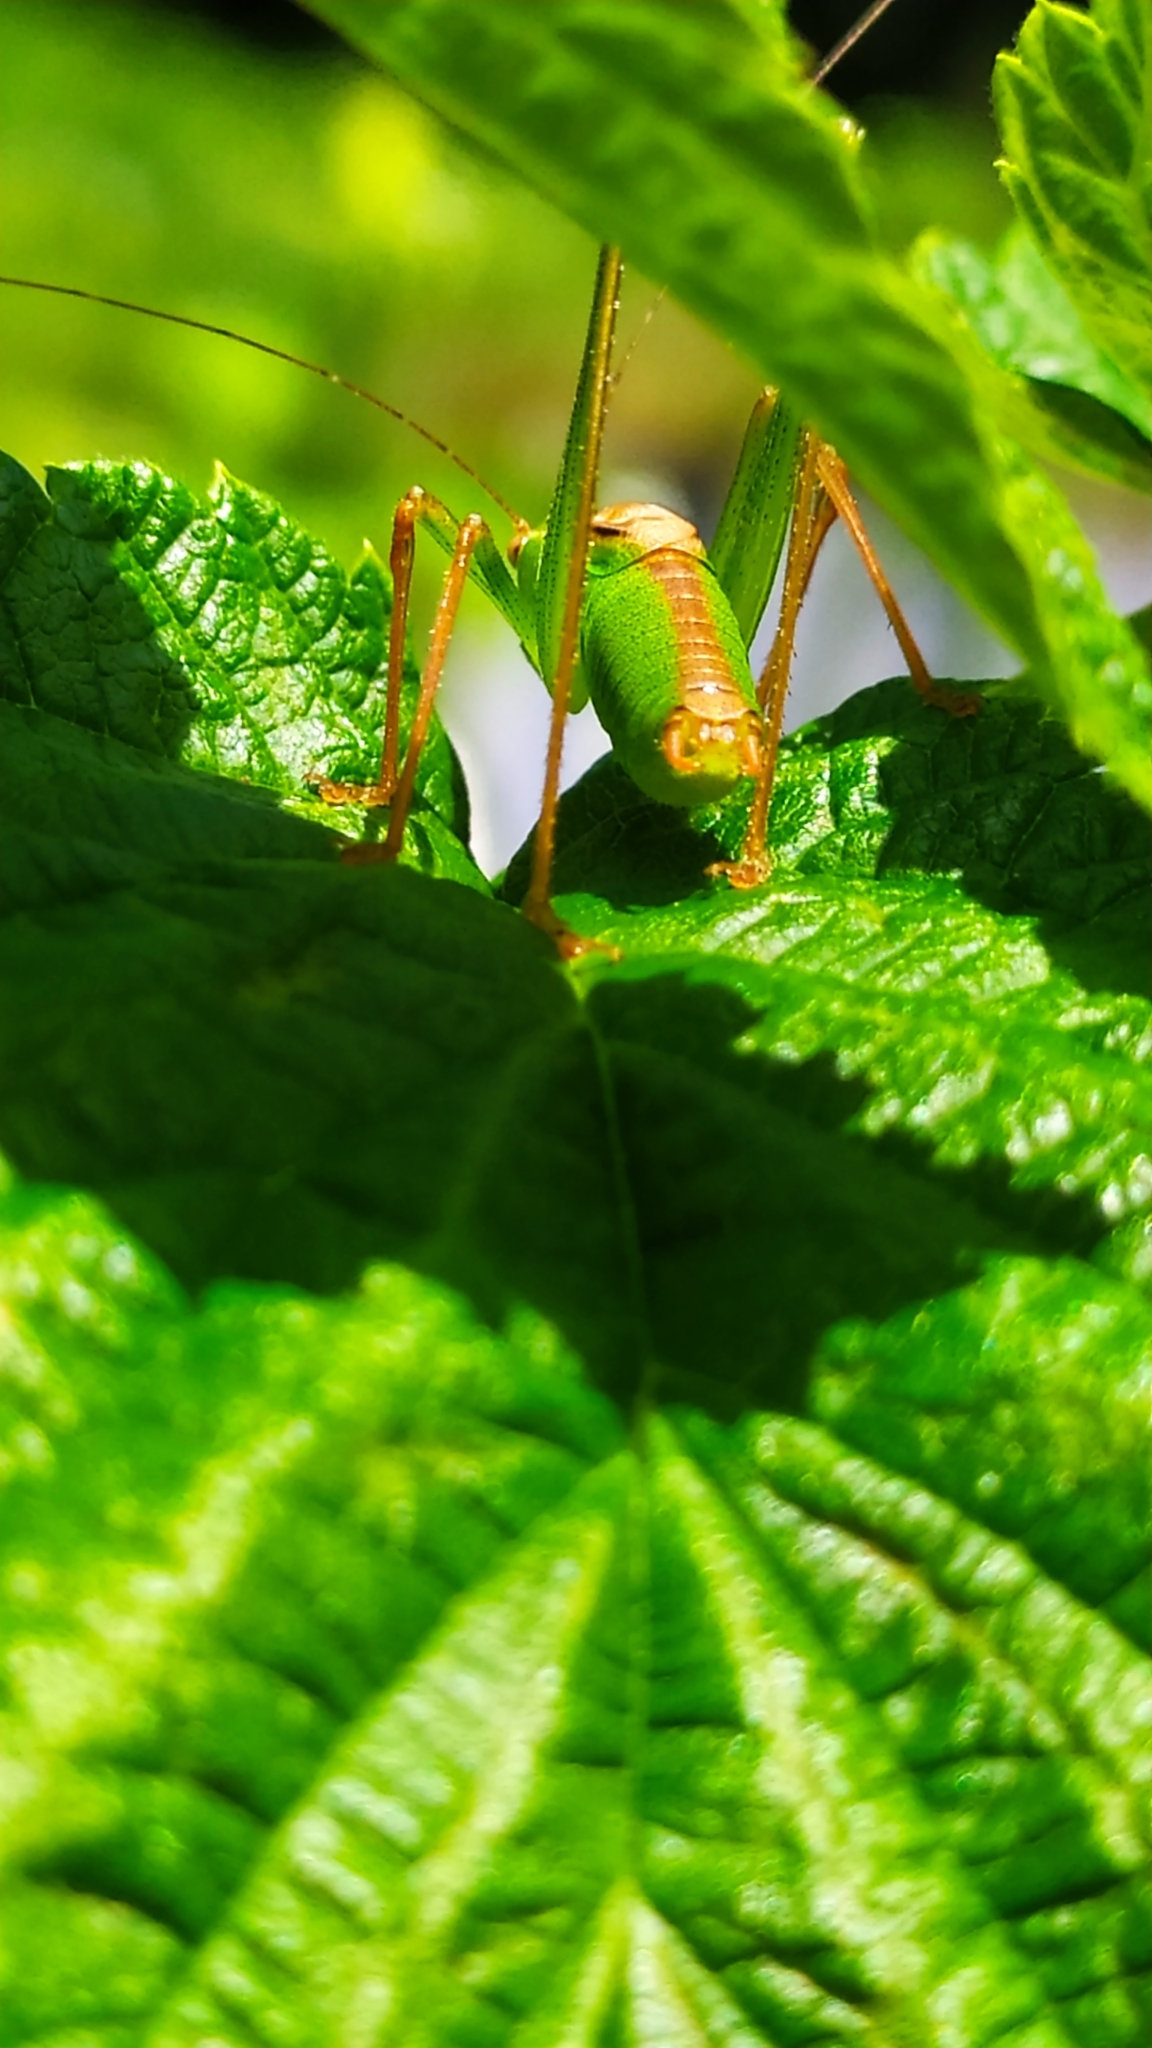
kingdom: Animalia
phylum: Arthropoda
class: Insecta
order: Orthoptera
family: Tettigoniidae
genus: Leptophyes
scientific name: Leptophyes punctatissima
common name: Speckled bush-cricket
